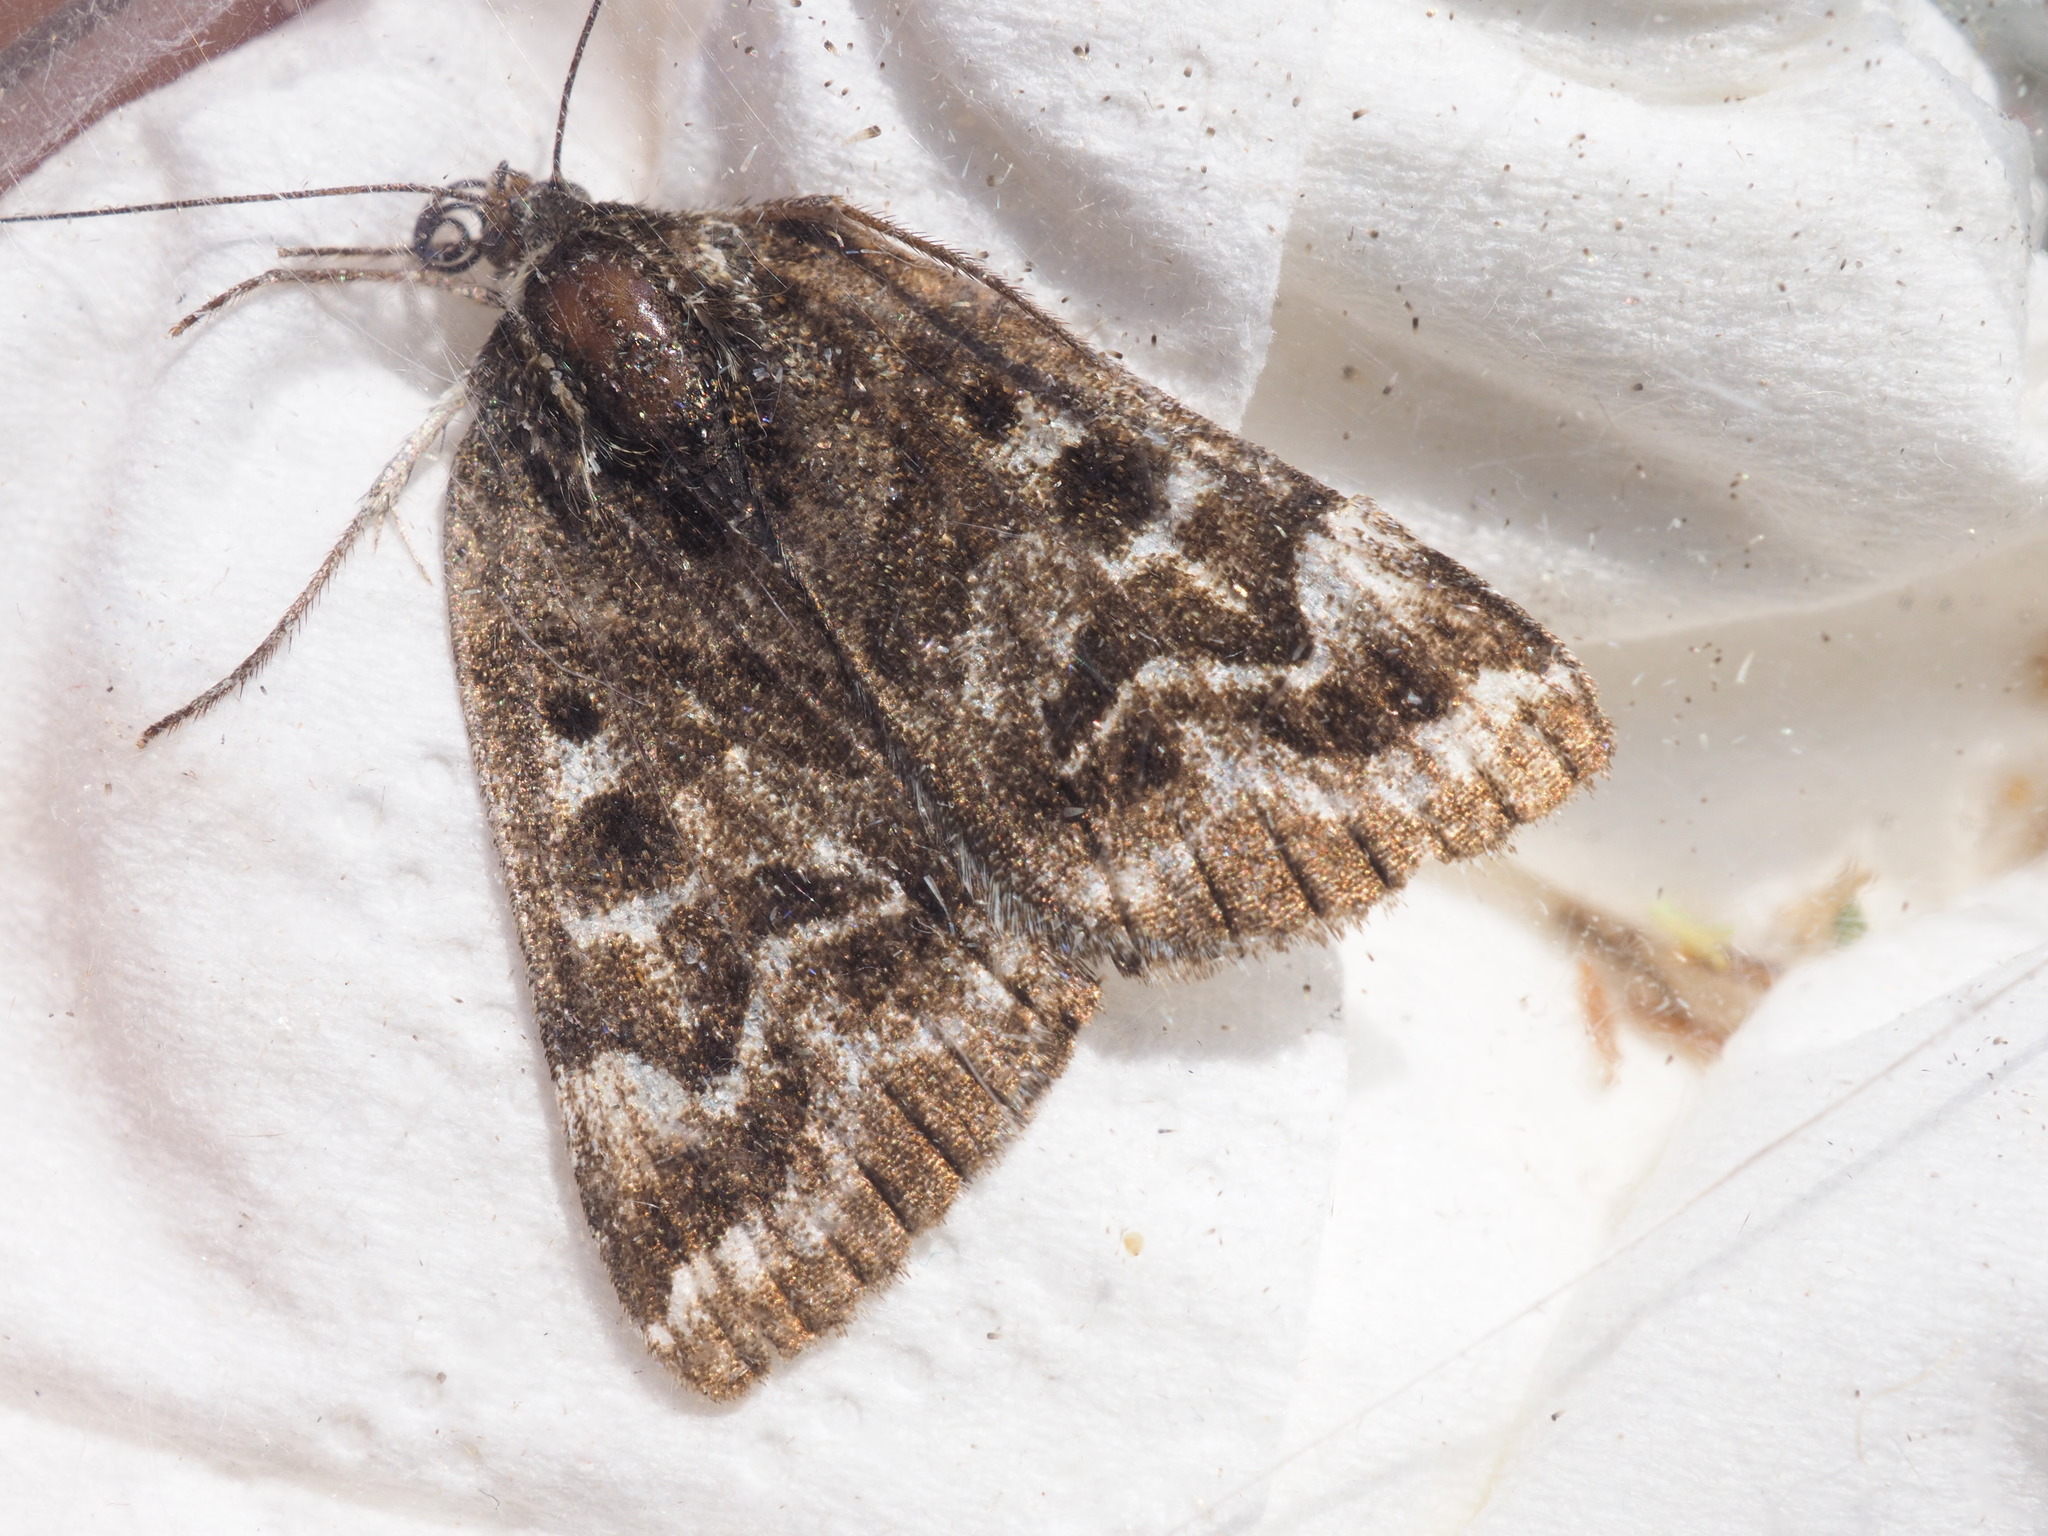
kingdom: Animalia
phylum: Arthropoda
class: Insecta
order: Lepidoptera
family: Erebidae
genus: Callistege
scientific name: Callistege mi
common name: Mother shipton
